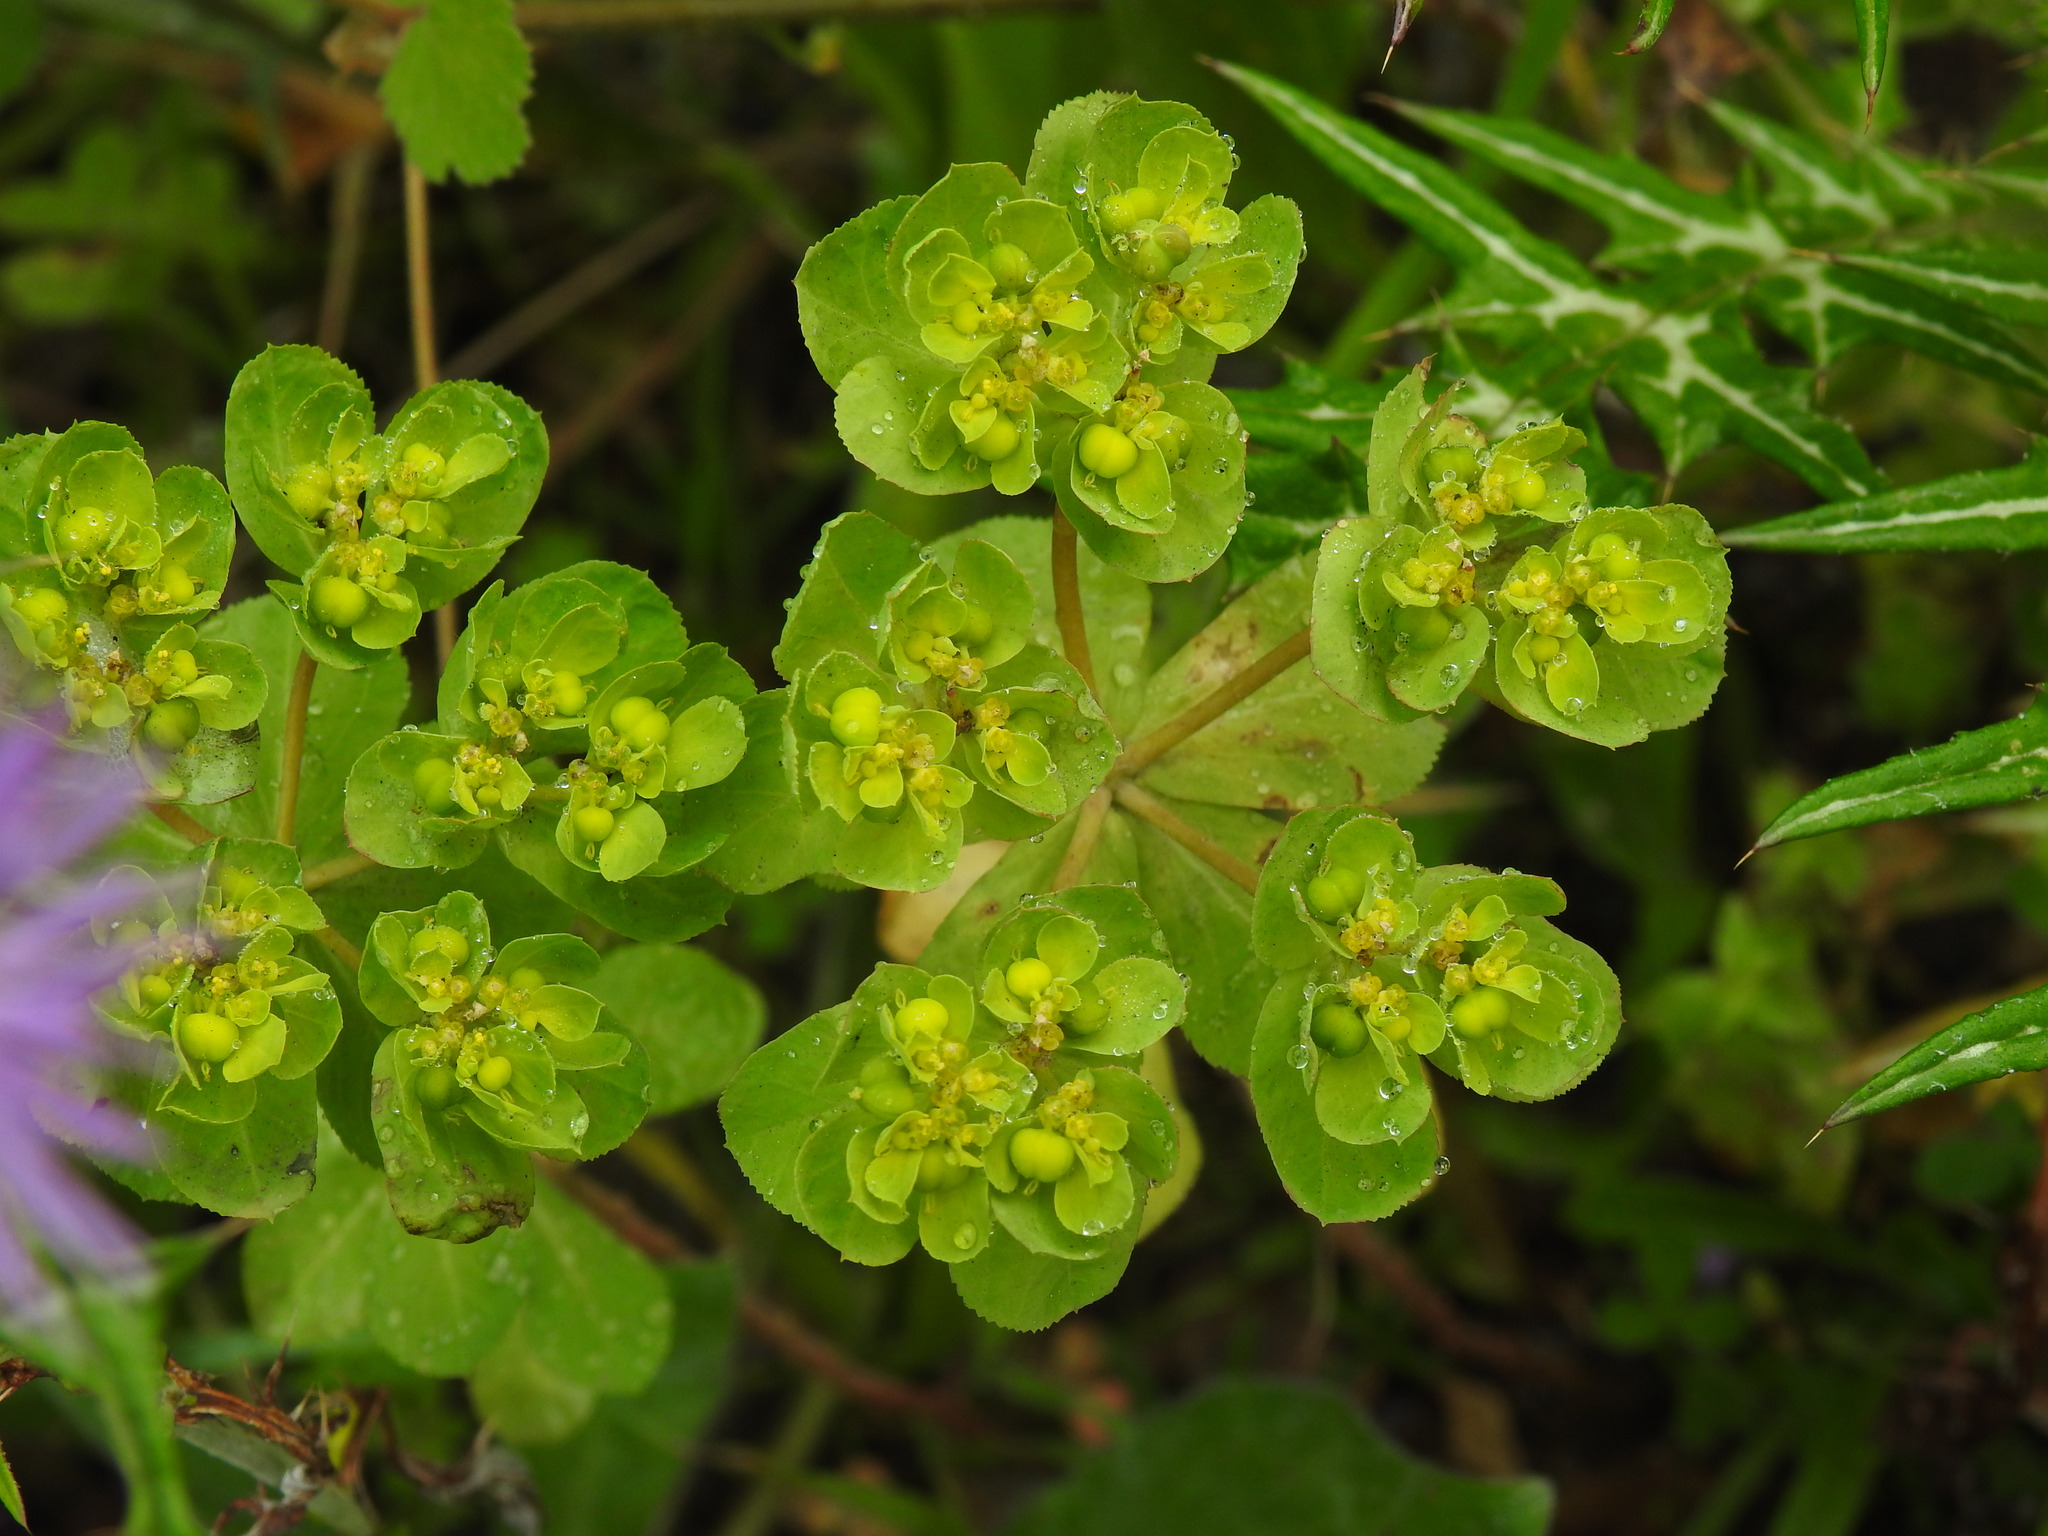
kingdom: Plantae
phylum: Tracheophyta
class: Magnoliopsida
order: Malpighiales
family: Euphorbiaceae
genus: Euphorbia
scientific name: Euphorbia helioscopia
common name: Sun spurge
